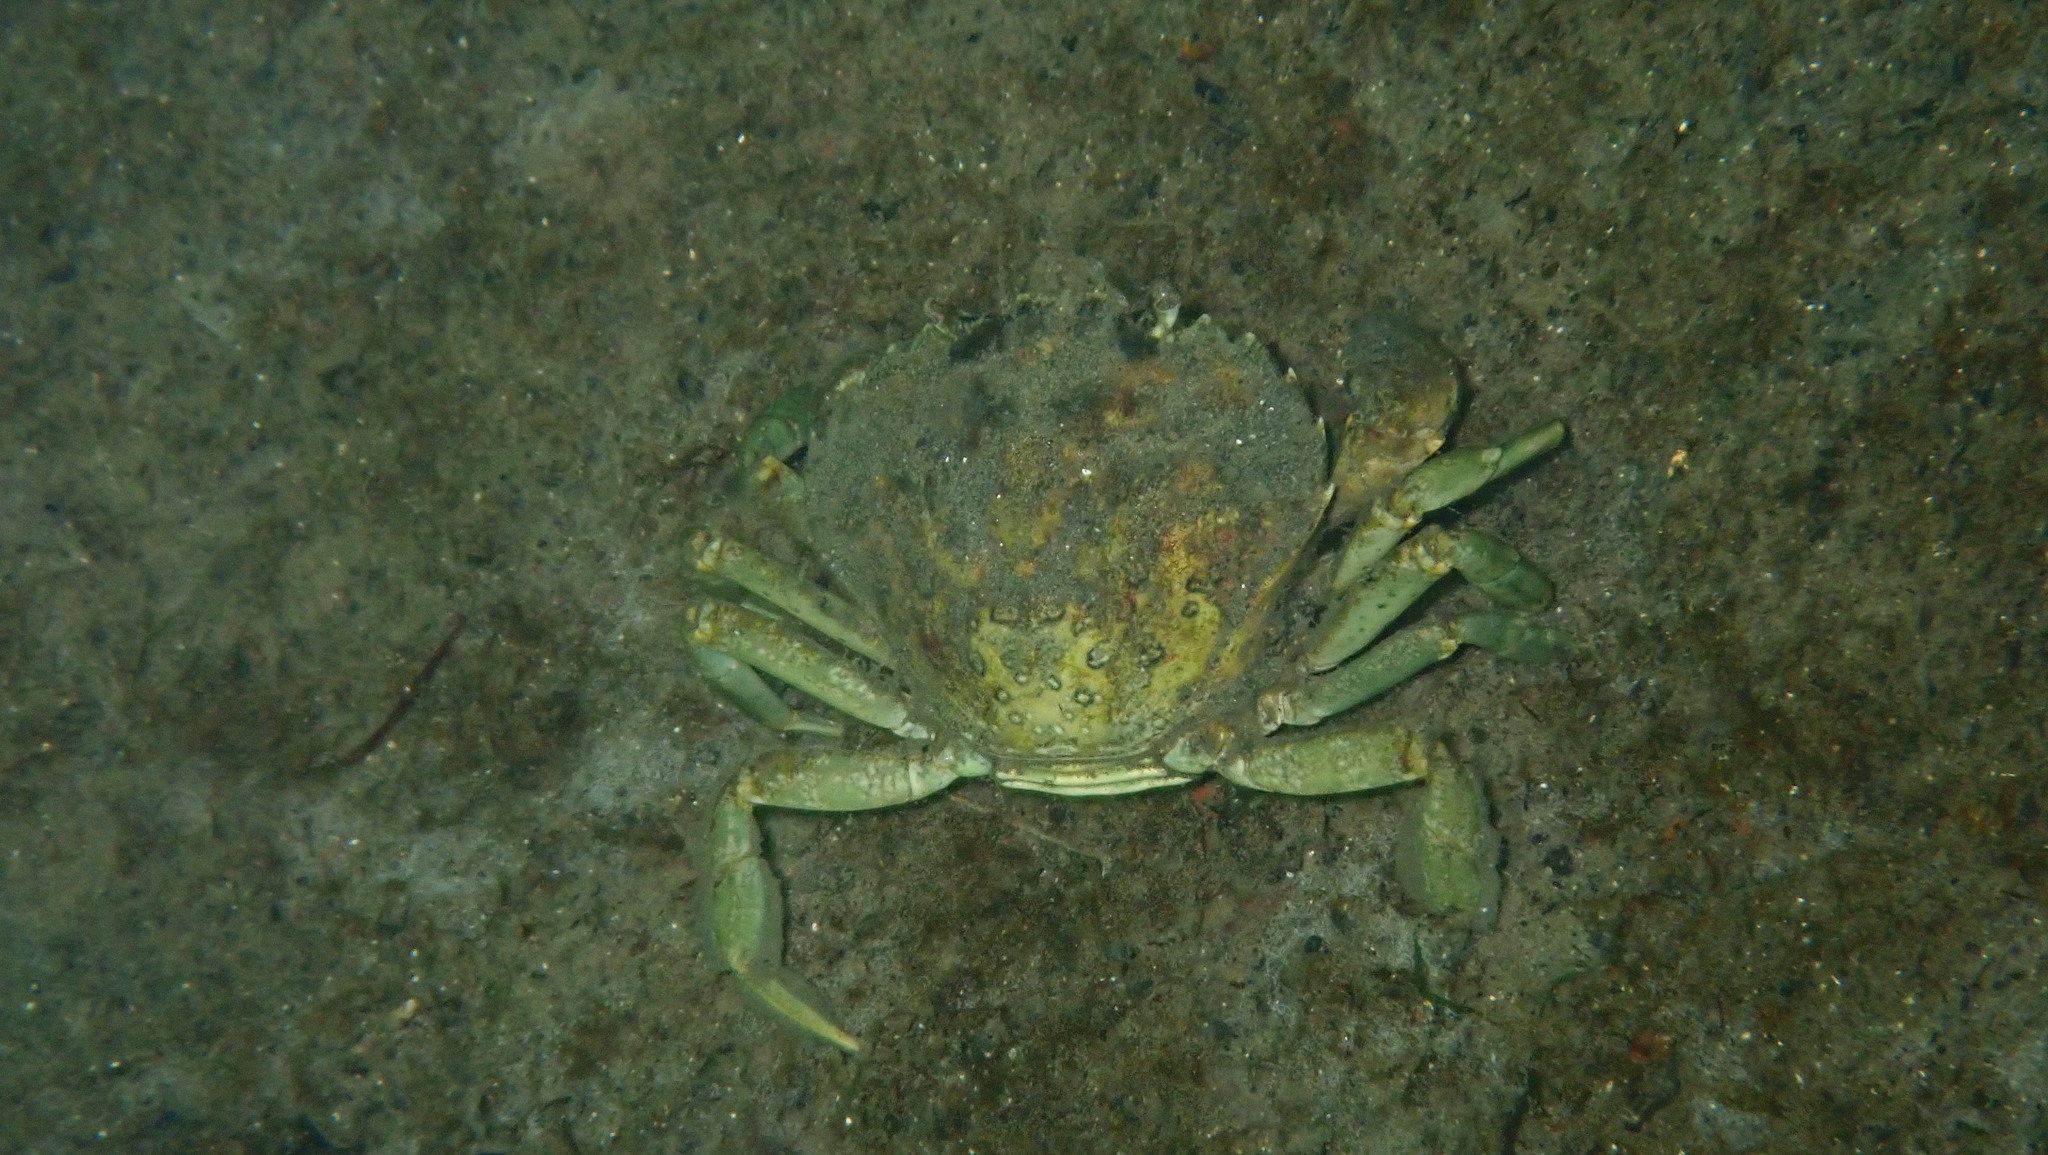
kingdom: Animalia
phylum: Arthropoda
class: Malacostraca
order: Decapoda
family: Carcinidae
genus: Carcinus
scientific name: Carcinus maenas
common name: European green crab
